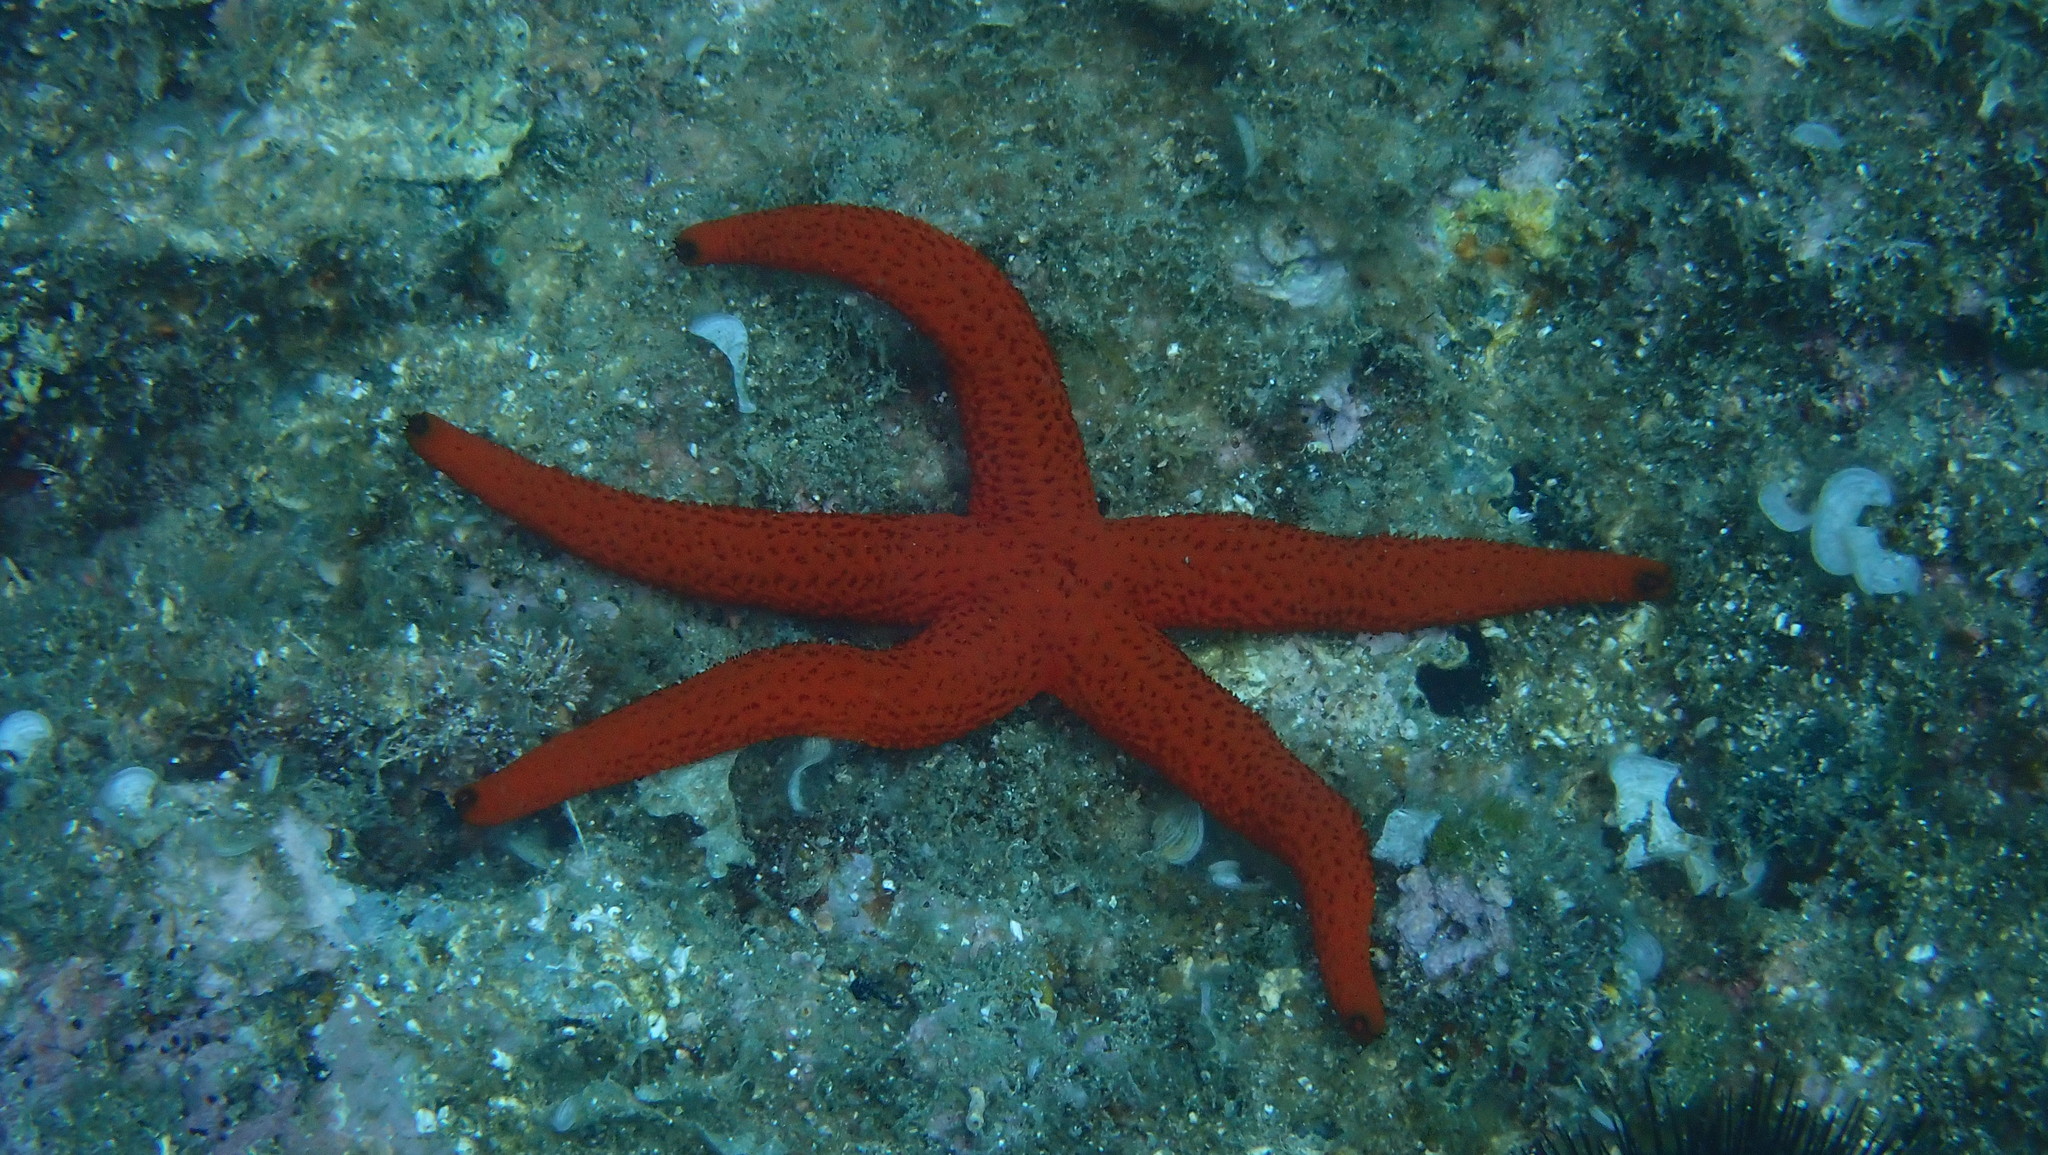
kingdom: Animalia
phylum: Echinodermata
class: Asteroidea
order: Spinulosida
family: Echinasteridae
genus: Echinaster
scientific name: Echinaster sepositus
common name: Red starfish
